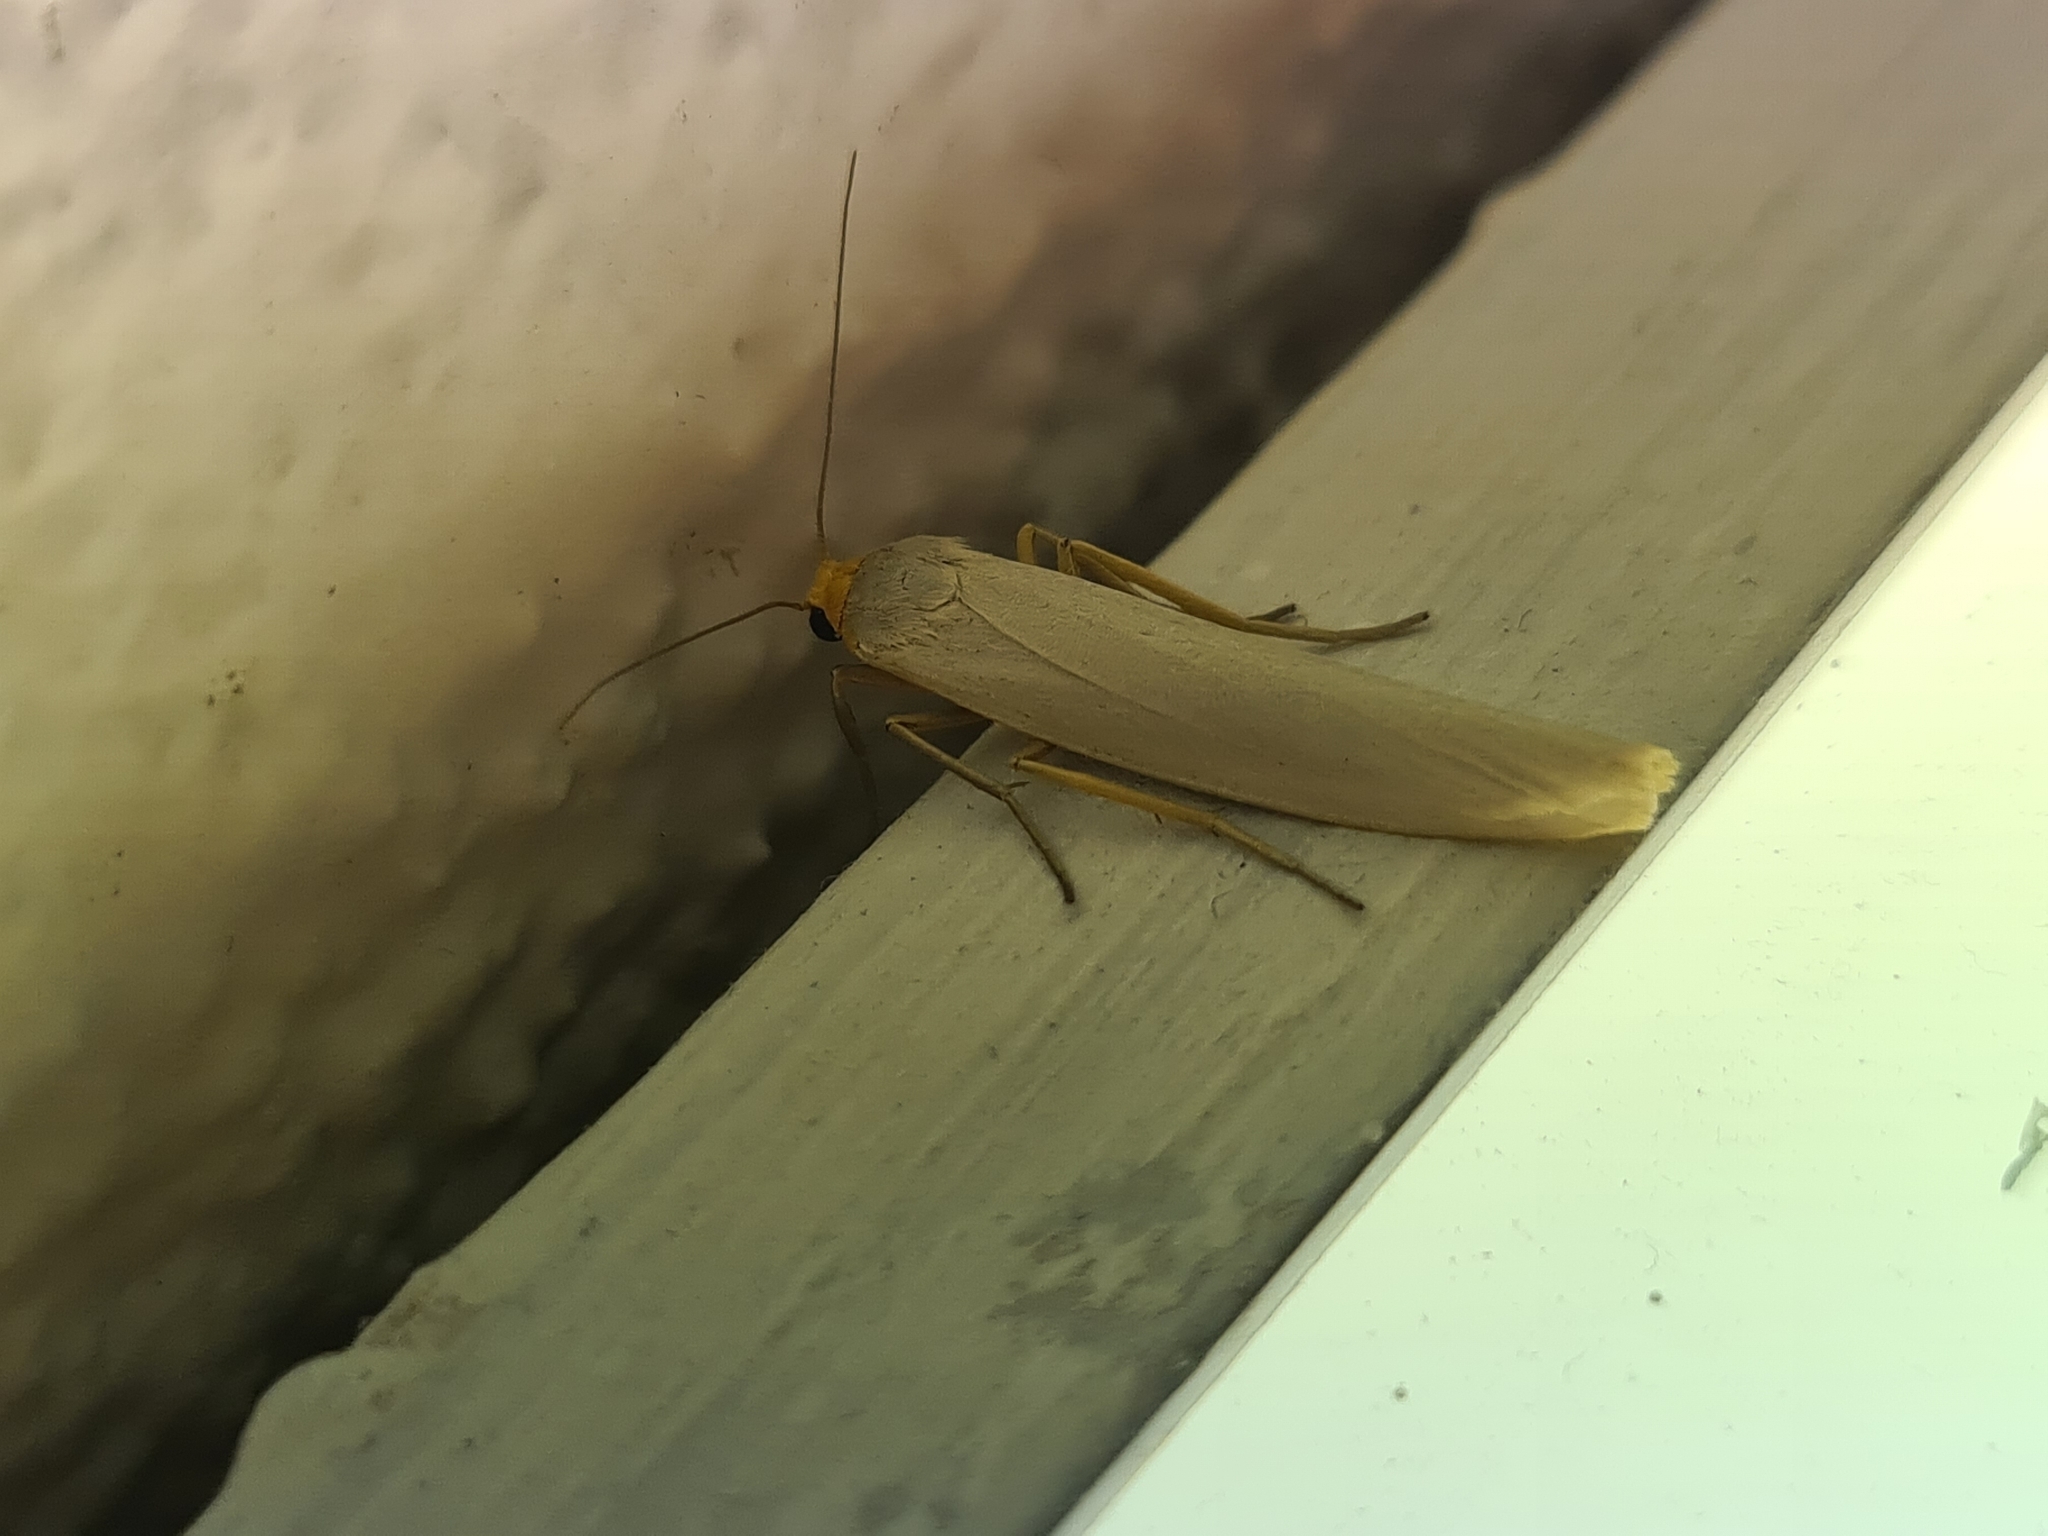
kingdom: Animalia
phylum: Arthropoda
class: Insecta
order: Lepidoptera
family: Erebidae
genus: Eilema
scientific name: Eilema caniola
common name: Hoary footman
